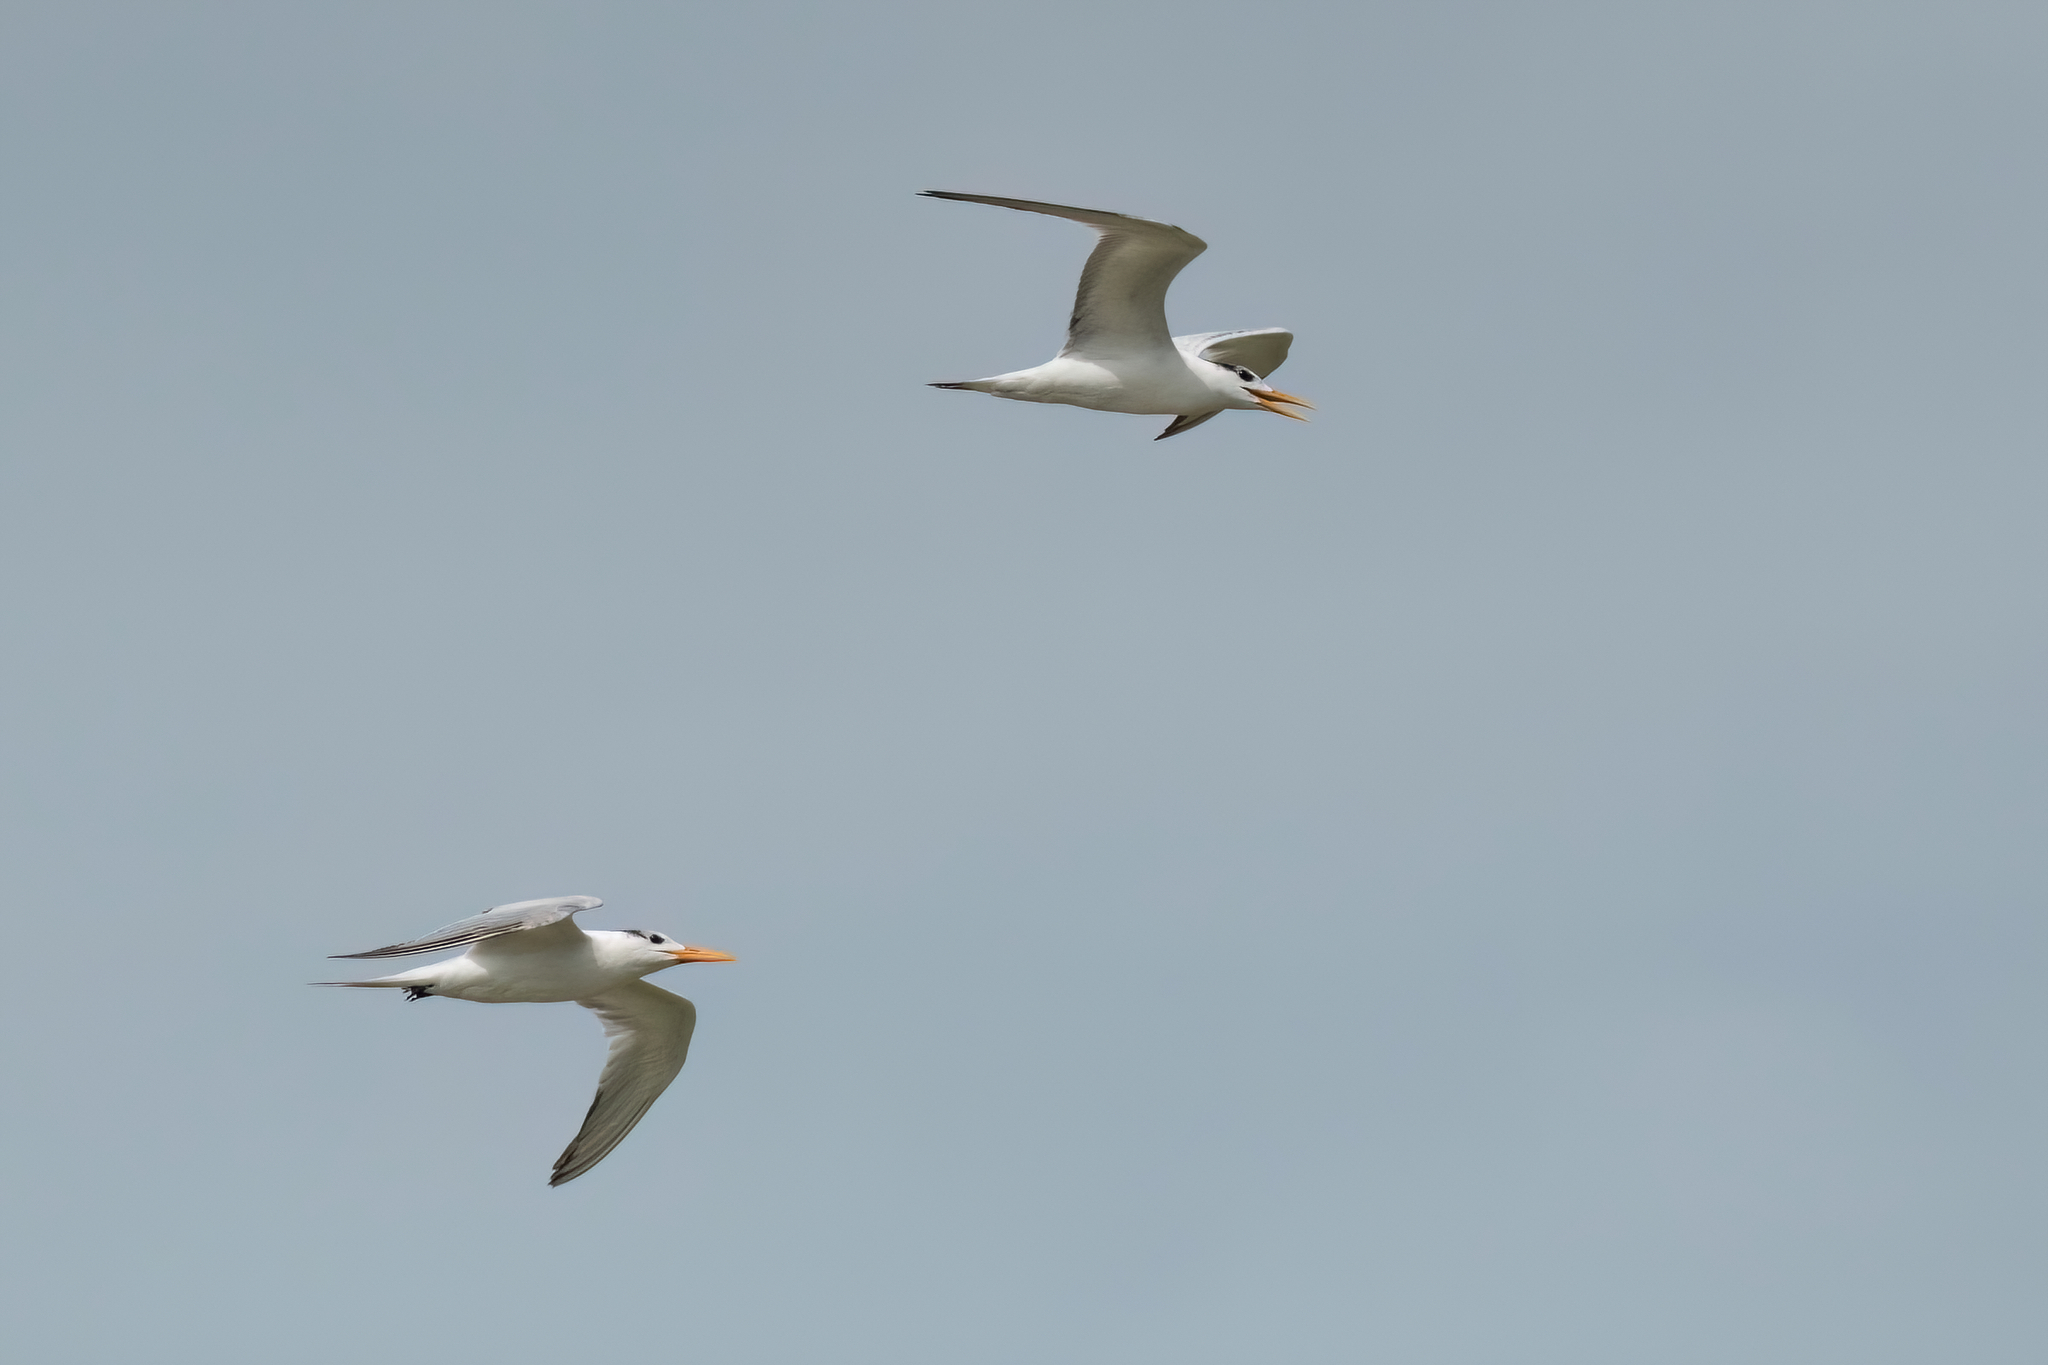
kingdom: Animalia
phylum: Chordata
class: Aves
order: Charadriiformes
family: Laridae
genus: Thalasseus
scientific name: Thalasseus maximus
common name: Royal tern
